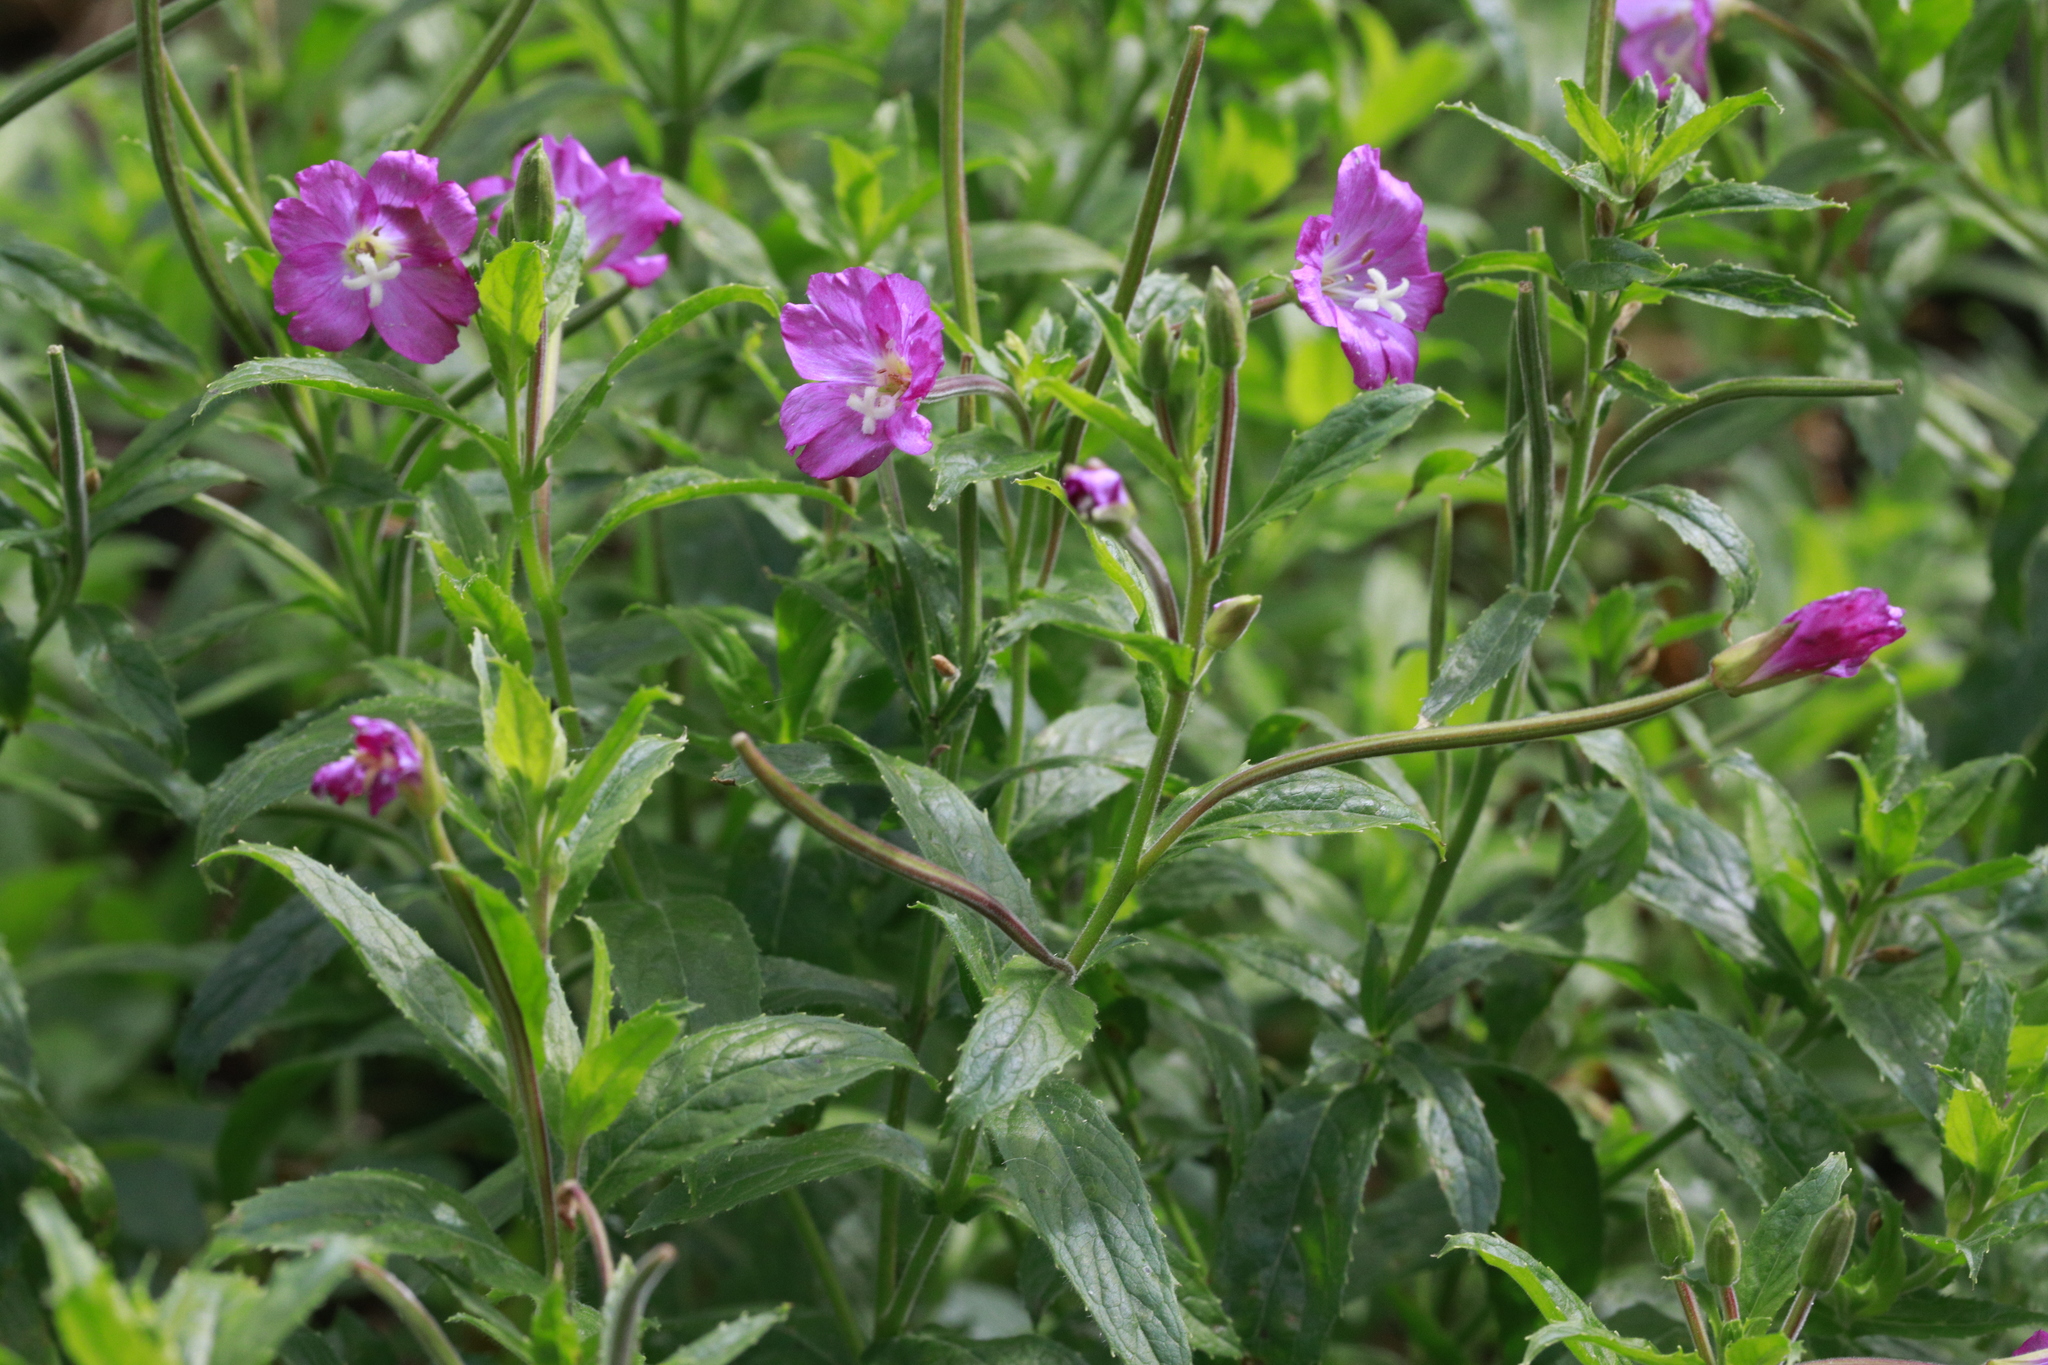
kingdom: Plantae
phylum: Tracheophyta
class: Magnoliopsida
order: Myrtales
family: Onagraceae
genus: Epilobium
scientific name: Epilobium hirsutum
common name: Great willowherb
